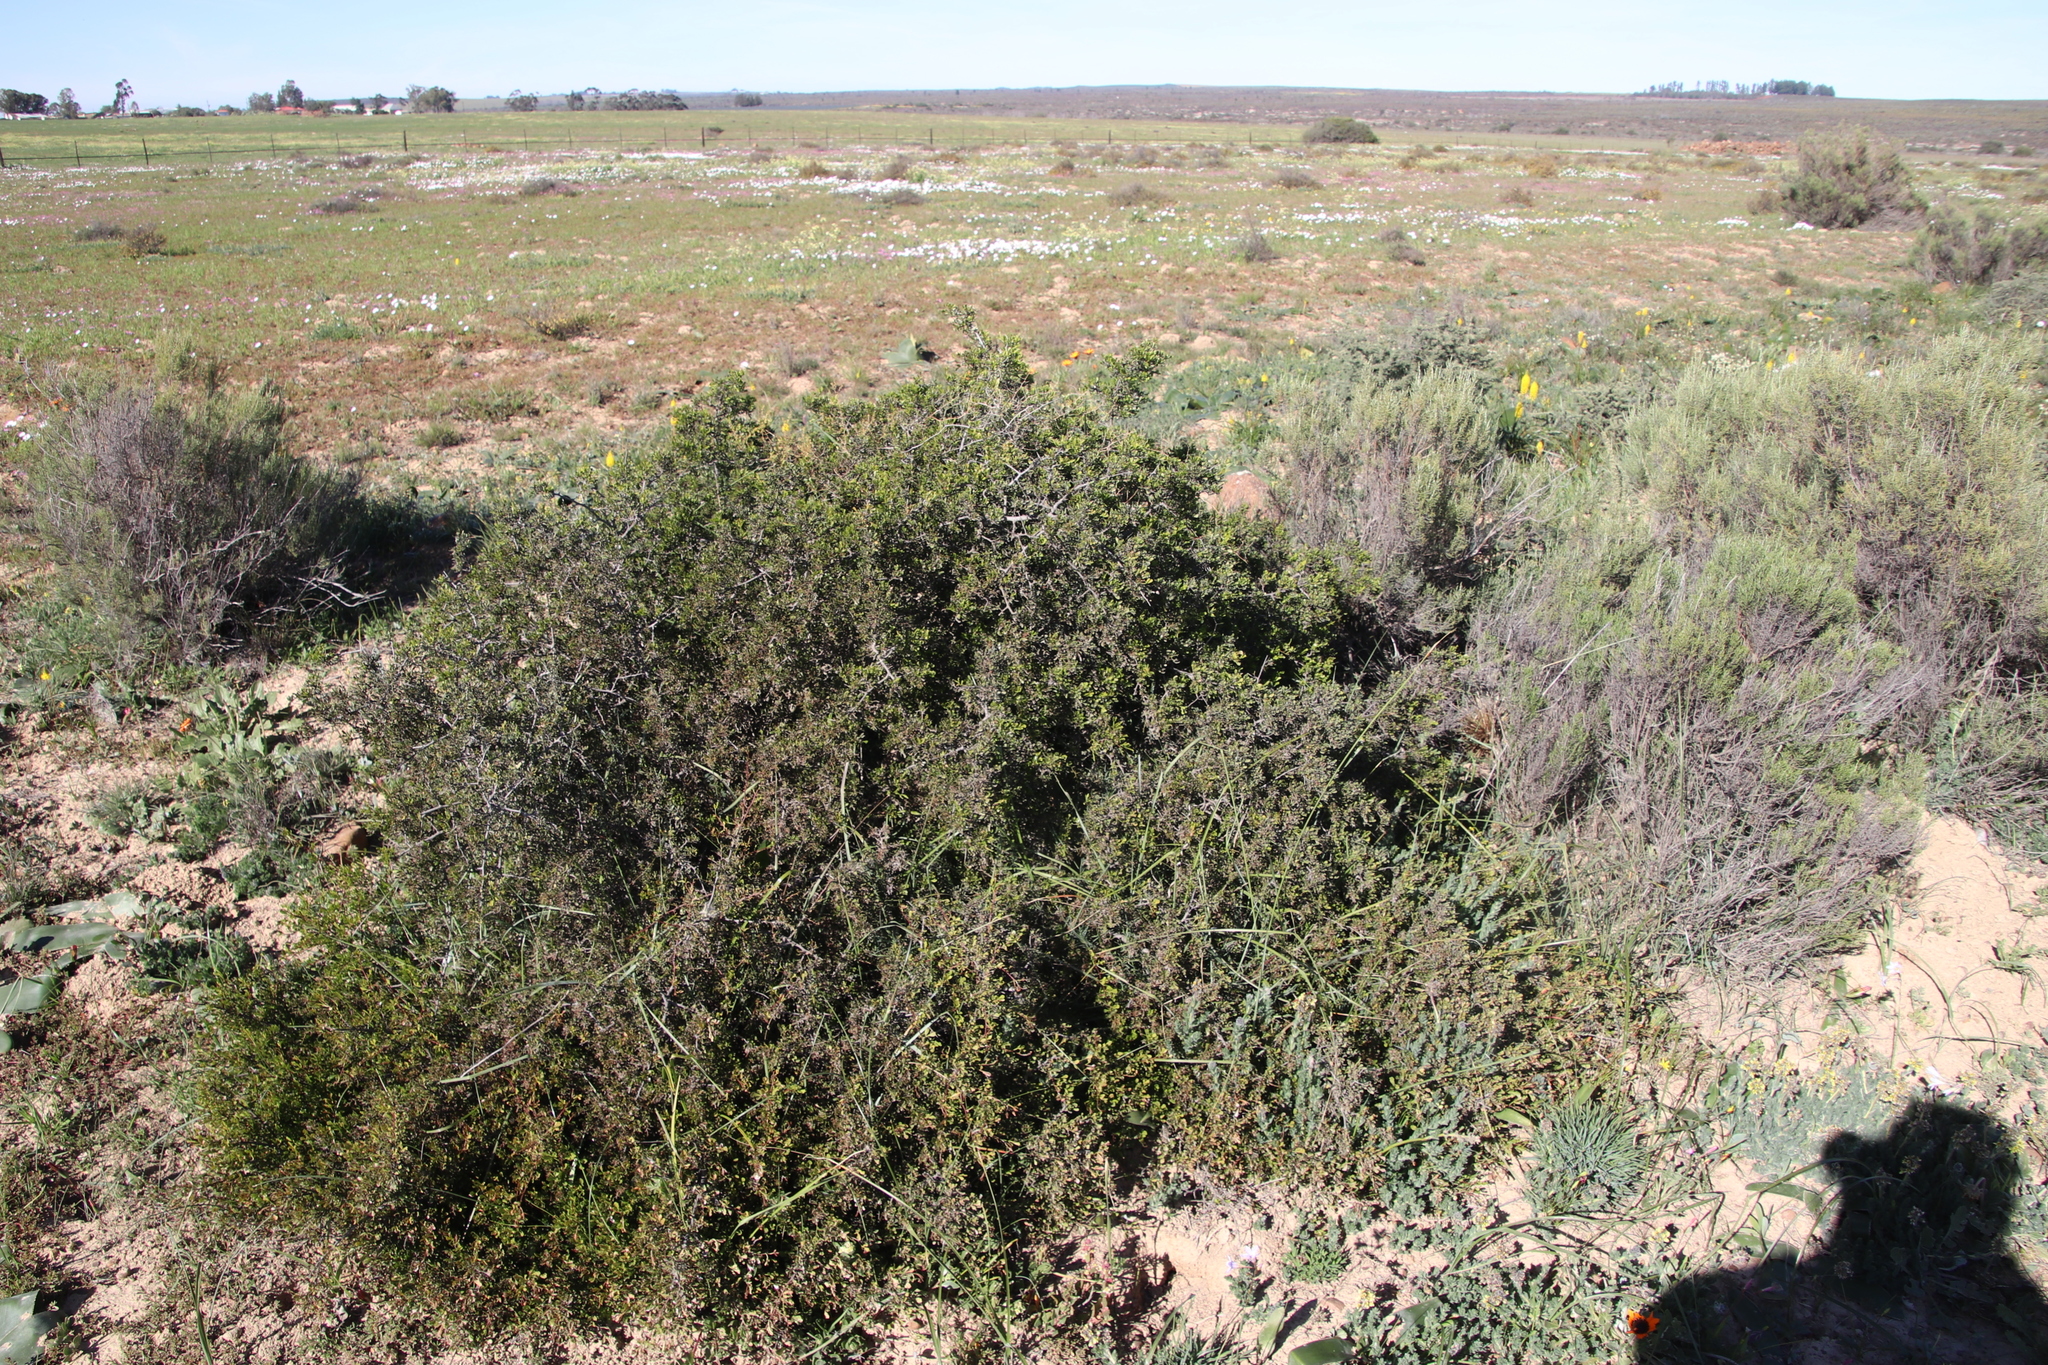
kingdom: Plantae
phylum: Tracheophyta
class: Magnoliopsida
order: Sapindales
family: Anacardiaceae
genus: Searsia
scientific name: Searsia undulata
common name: Namaqua kunibush
